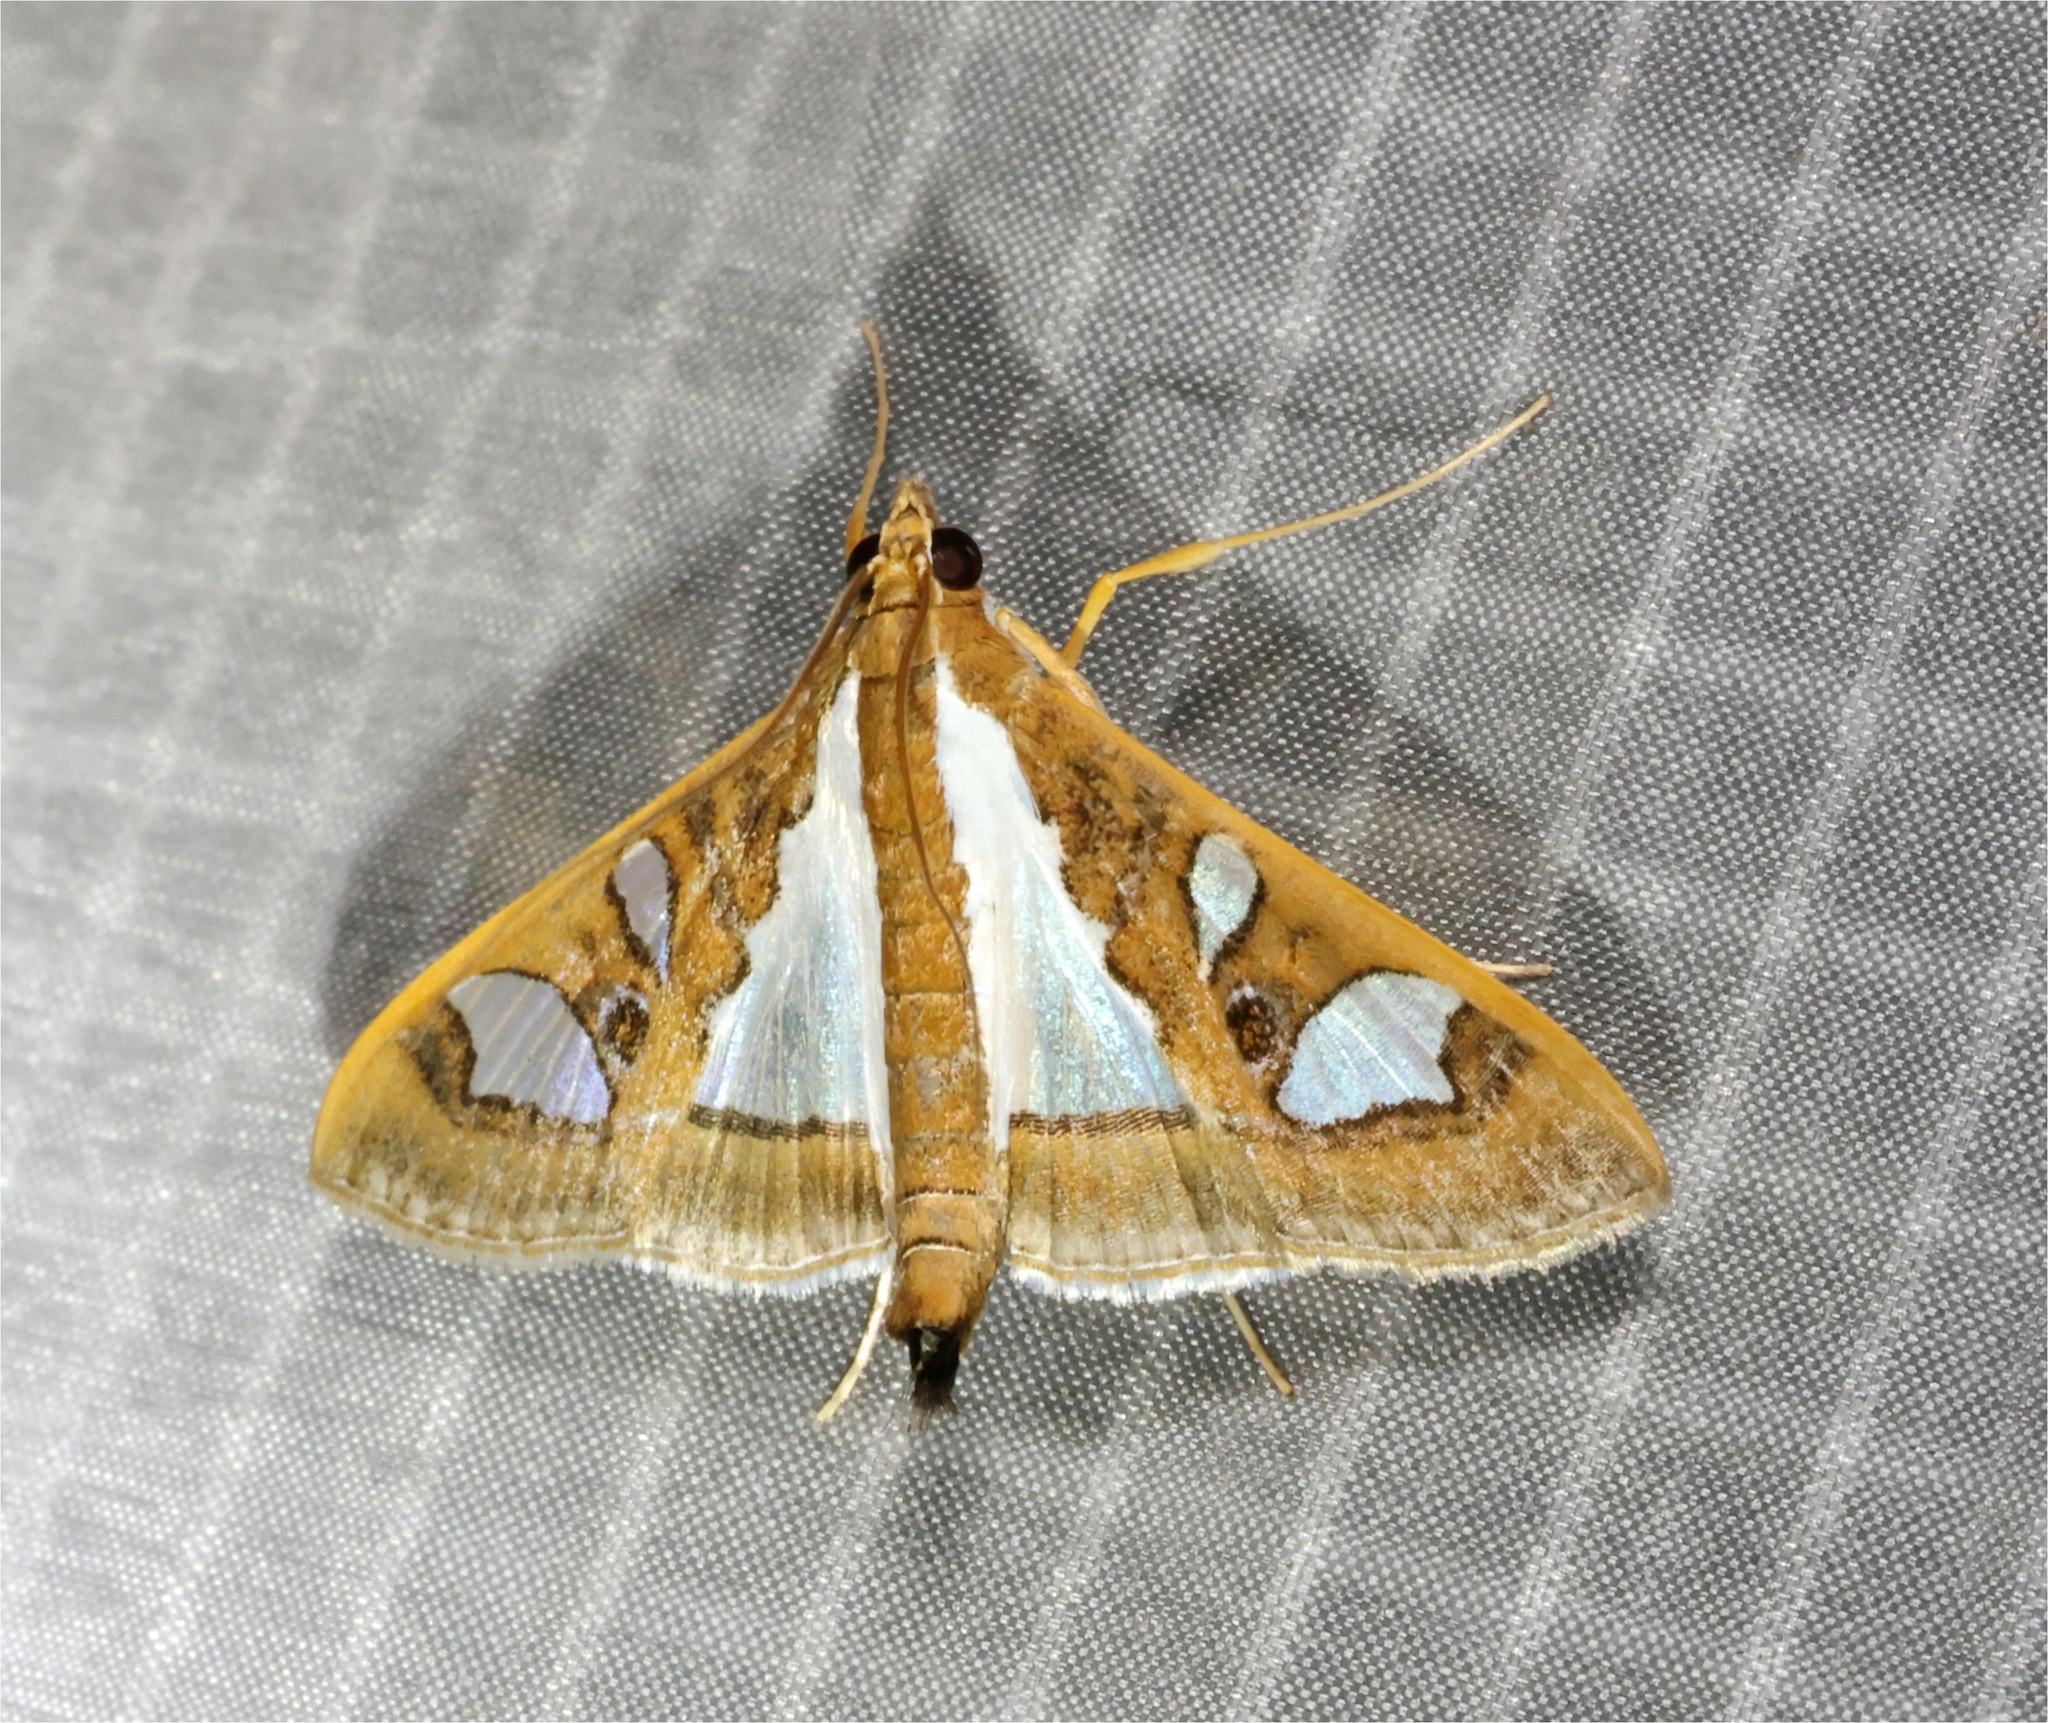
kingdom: Animalia
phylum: Arthropoda
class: Insecta
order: Lepidoptera
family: Crambidae
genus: Glyphodes
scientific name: Glyphodes bivitralis
